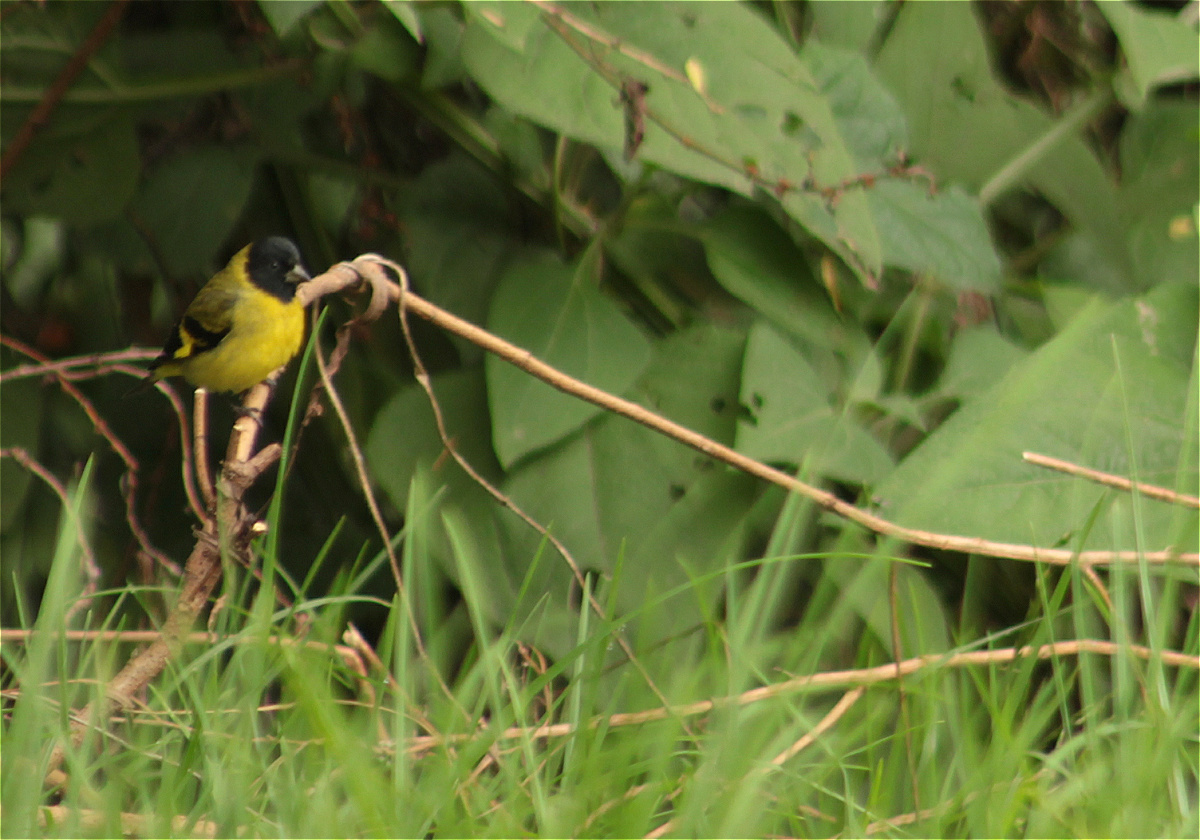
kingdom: Animalia
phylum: Chordata
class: Aves
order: Passeriformes
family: Fringillidae
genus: Spinus
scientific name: Spinus magellanicus
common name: Hooded siskin
